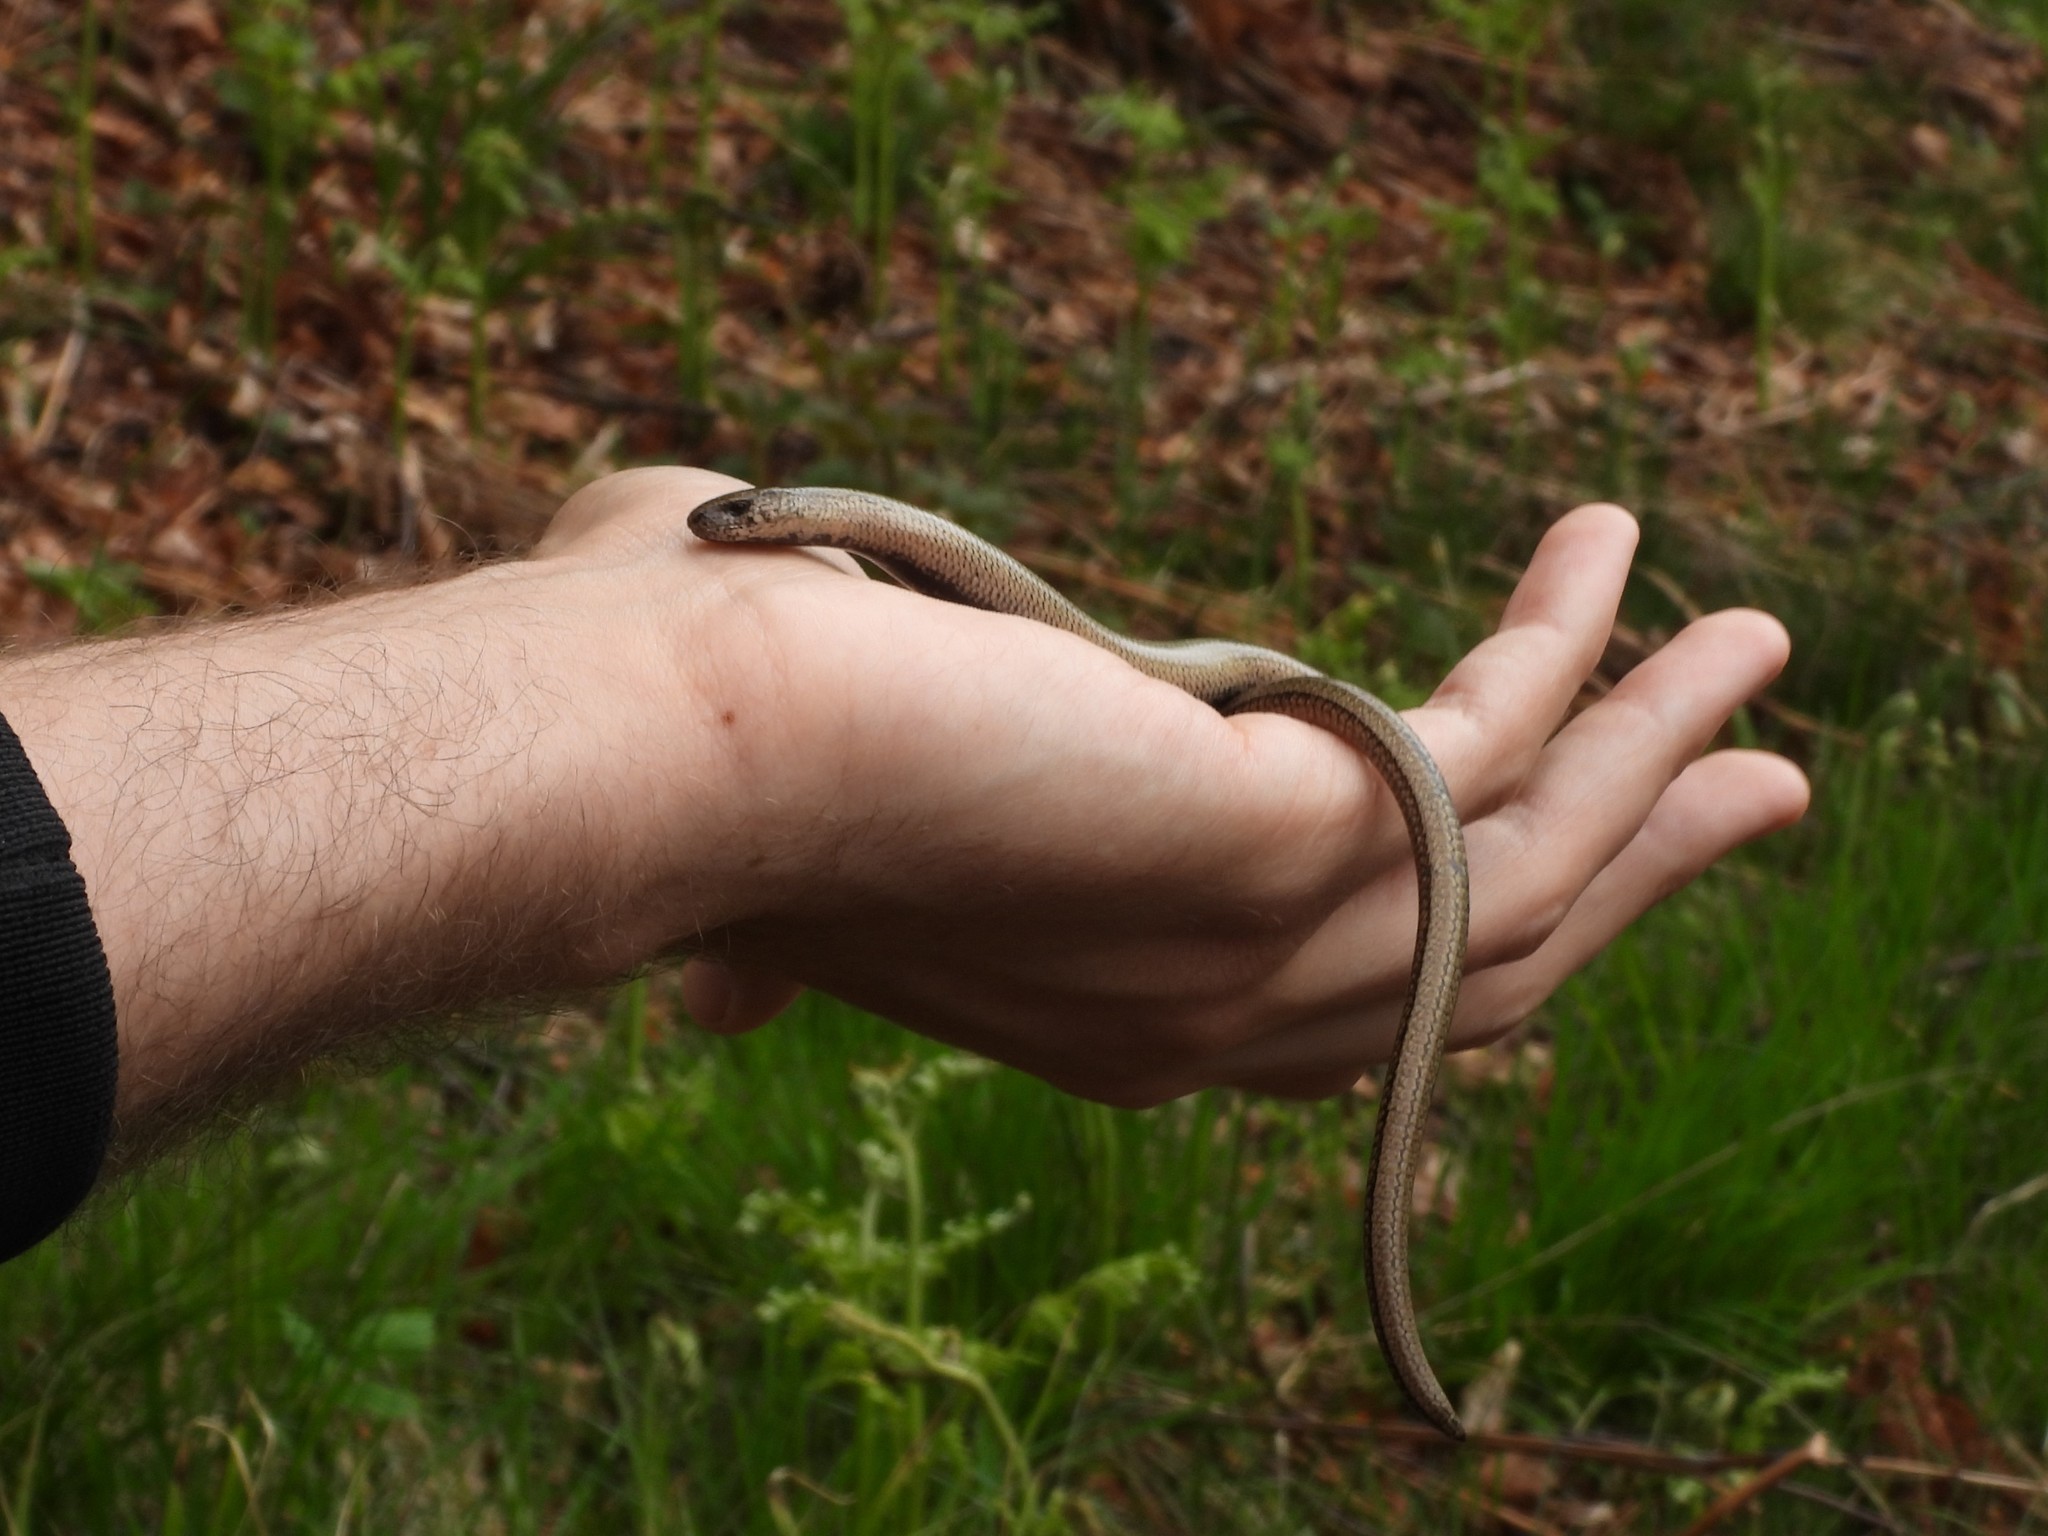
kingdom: Animalia
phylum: Chordata
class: Squamata
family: Anguidae
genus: Anguis
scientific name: Anguis veronensis
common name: Italian slow worm
